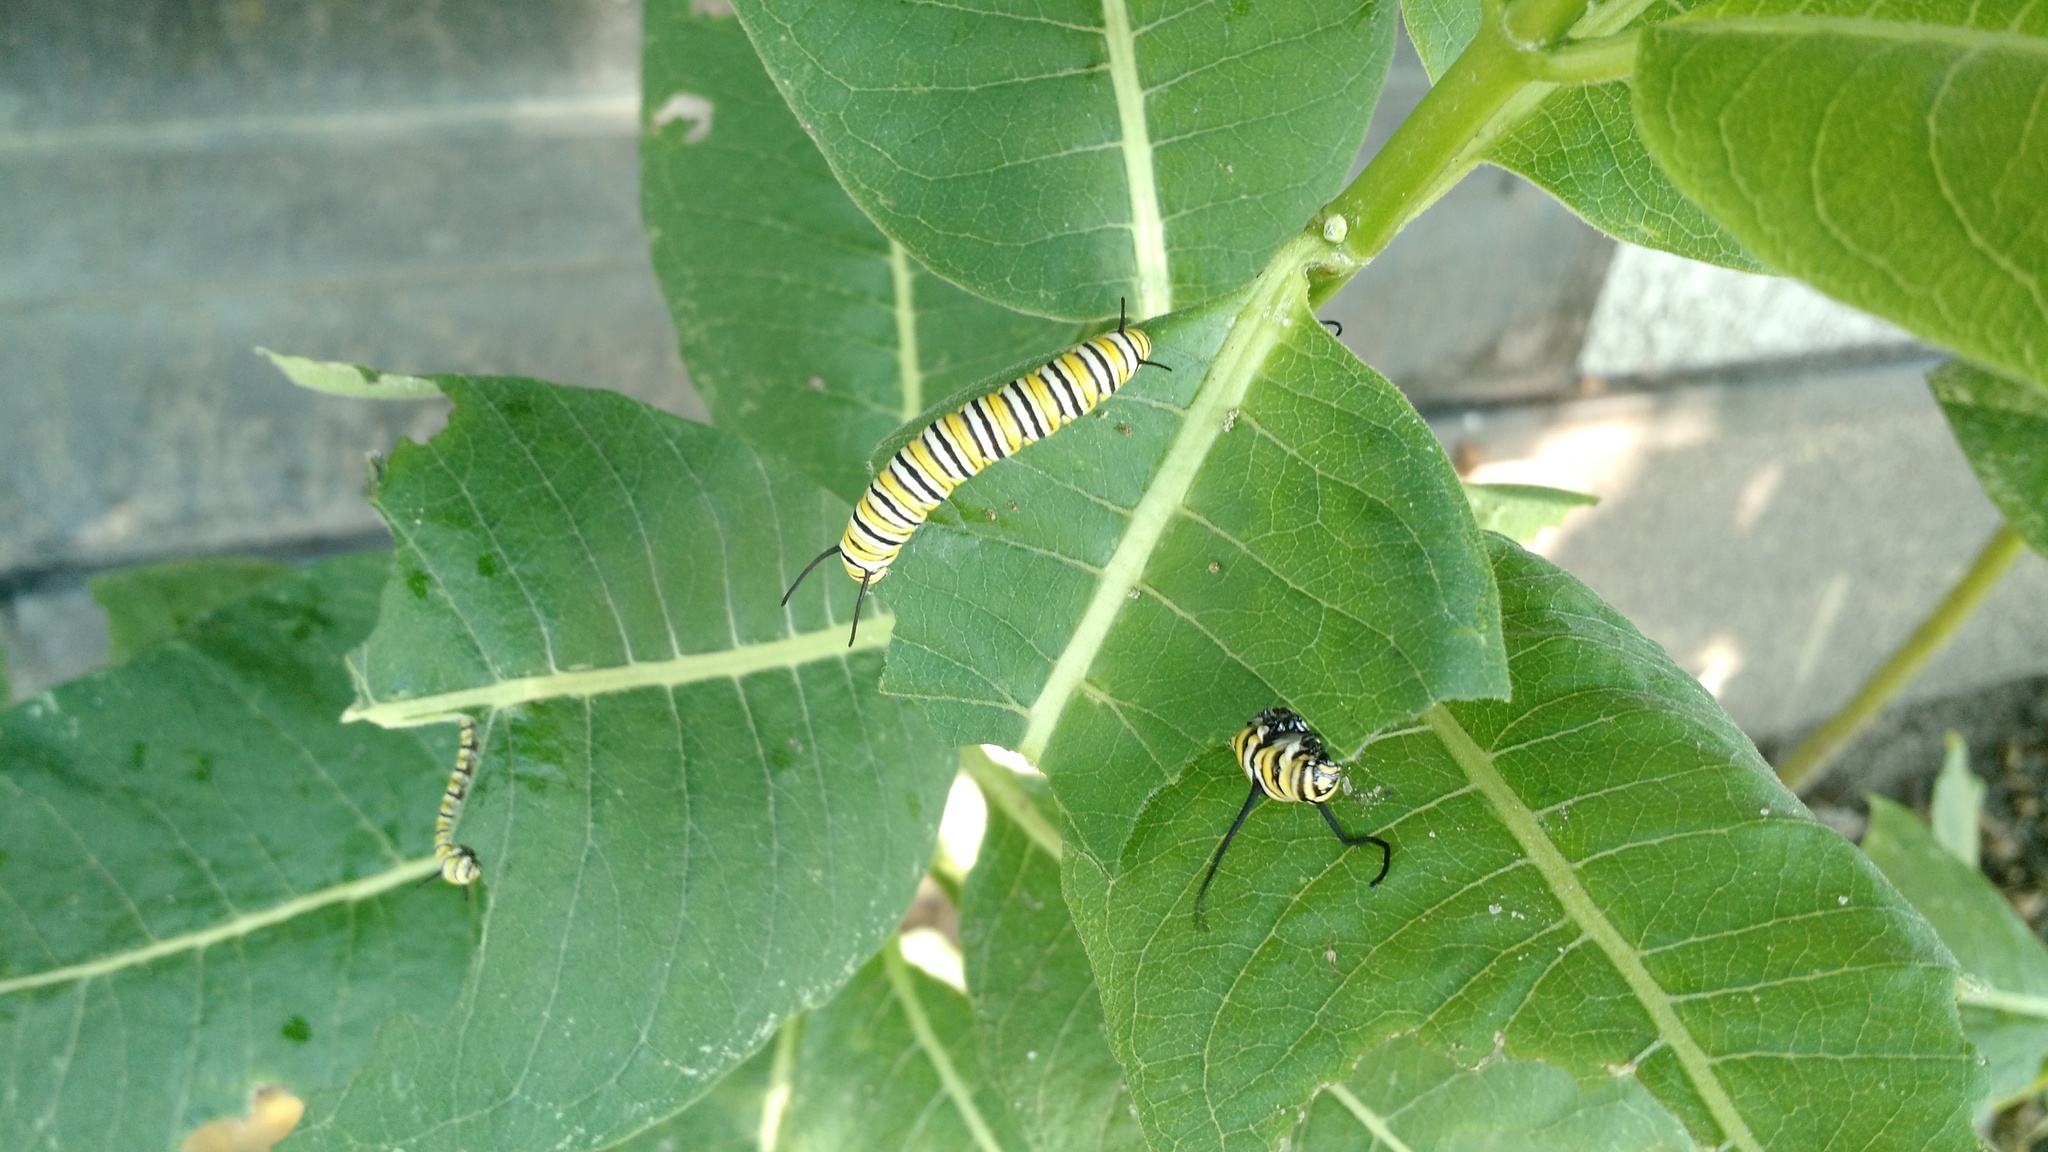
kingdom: Animalia
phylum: Arthropoda
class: Insecta
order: Lepidoptera
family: Nymphalidae
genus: Danaus
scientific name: Danaus plexippus
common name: Monarch
